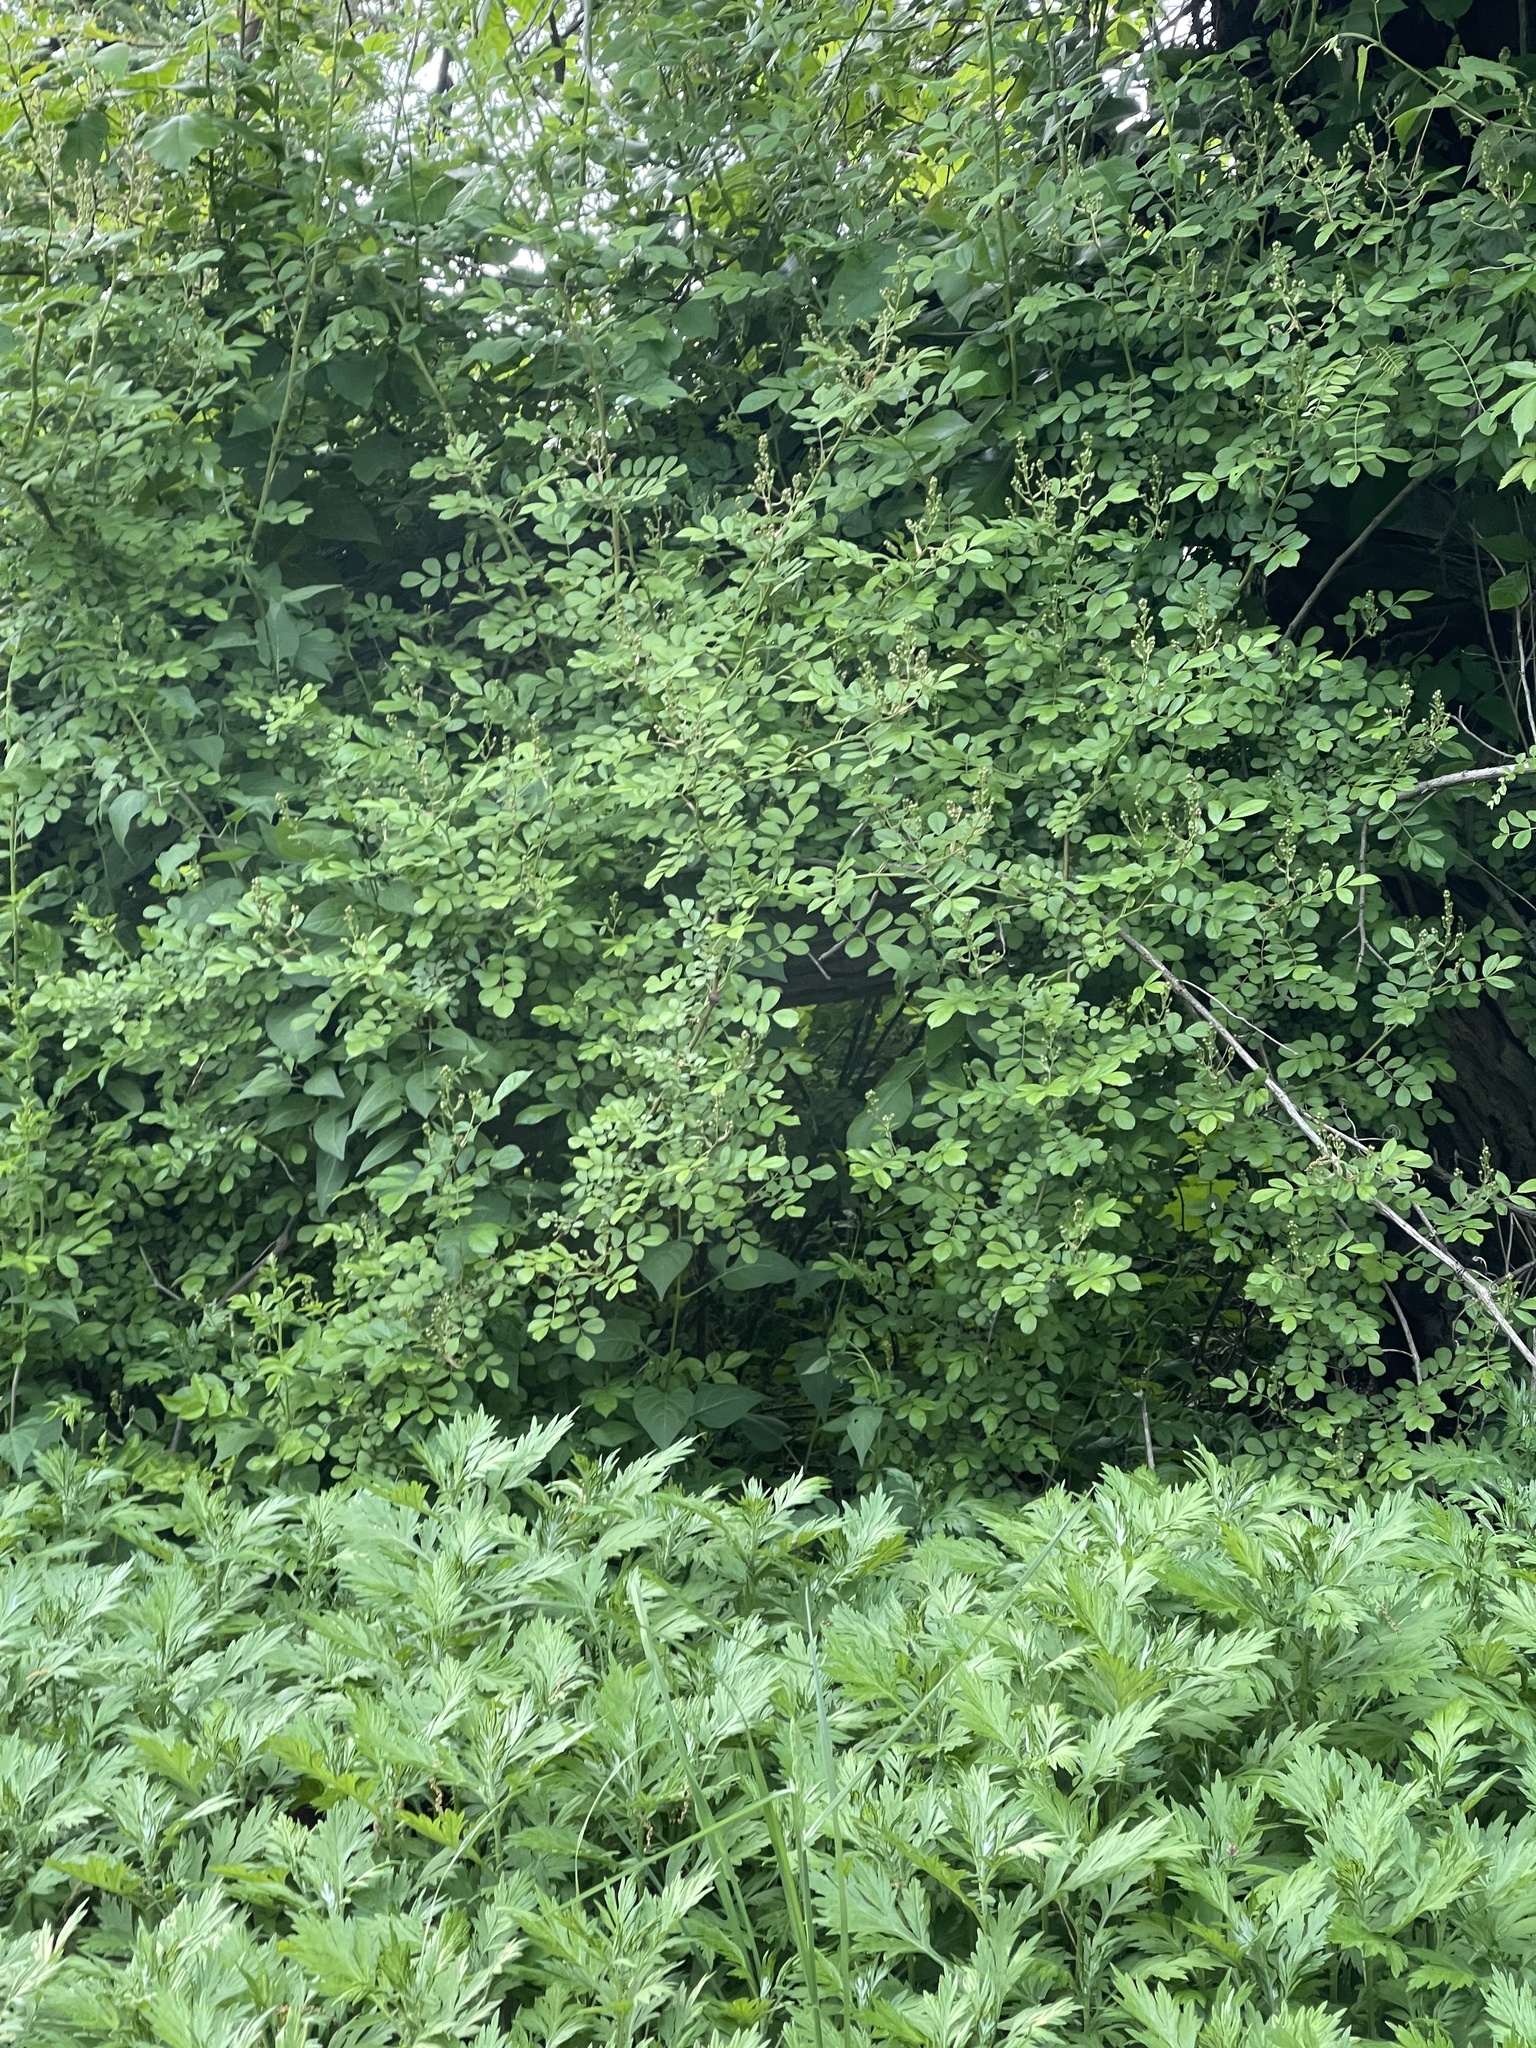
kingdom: Plantae
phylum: Tracheophyta
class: Magnoliopsida
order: Rosales
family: Rosaceae
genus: Rosa
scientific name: Rosa multiflora
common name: Multiflora rose
